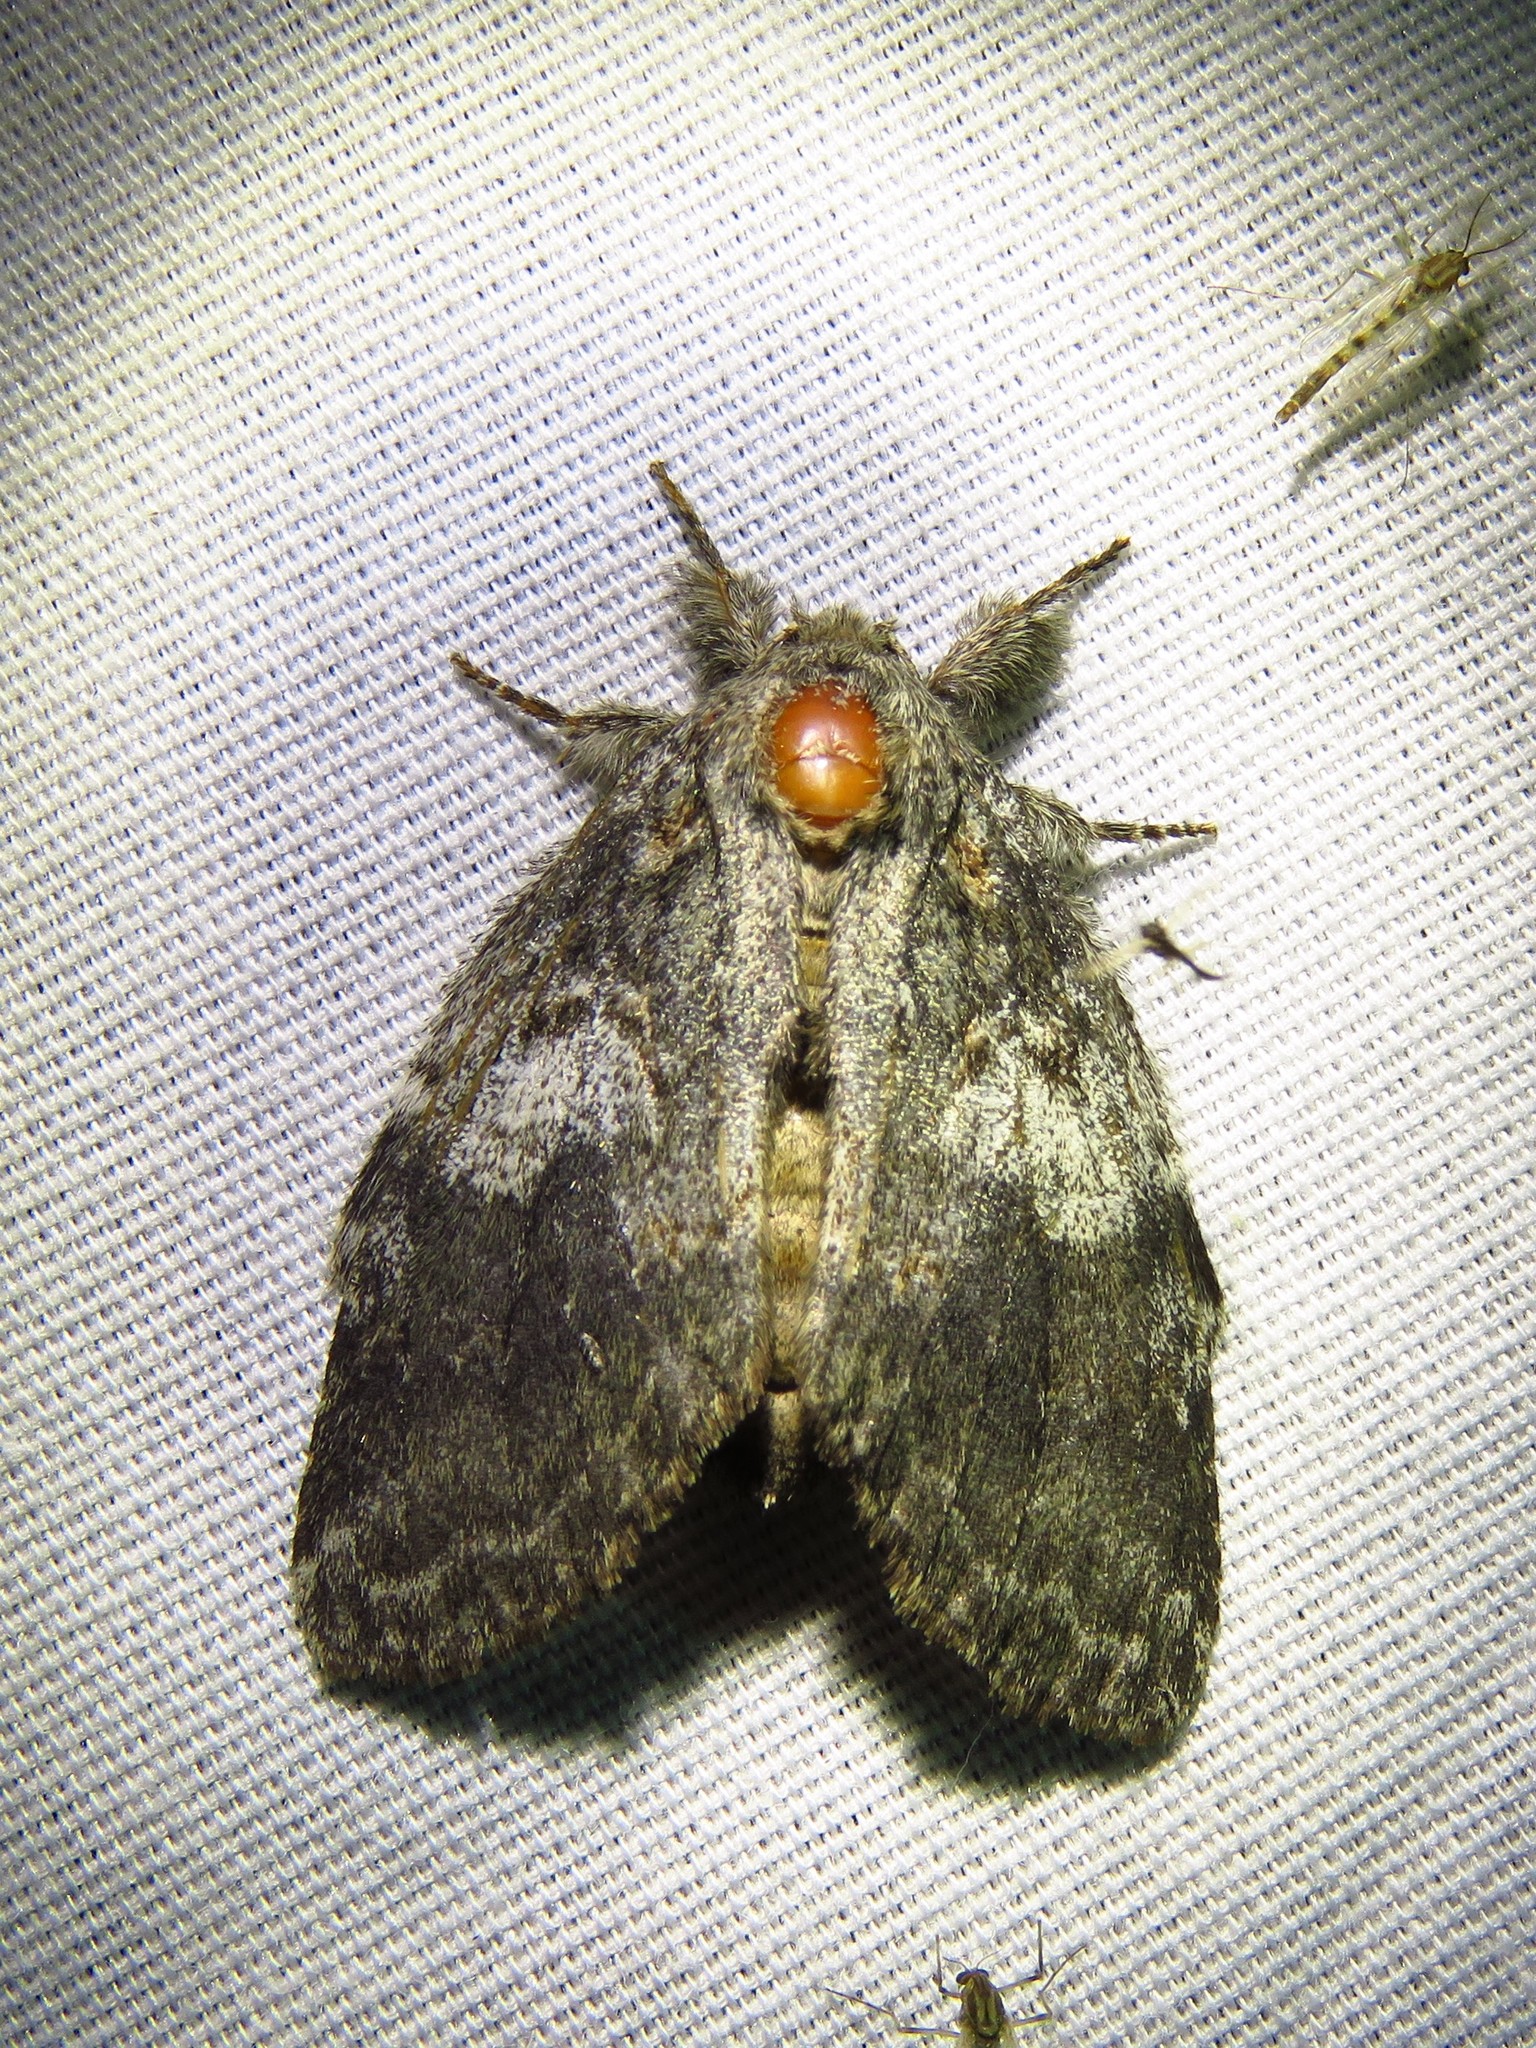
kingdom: Animalia
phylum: Arthropoda
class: Insecta
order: Lepidoptera
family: Notodontidae
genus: Peridea
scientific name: Peridea angulosa
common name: Angulose prominent
